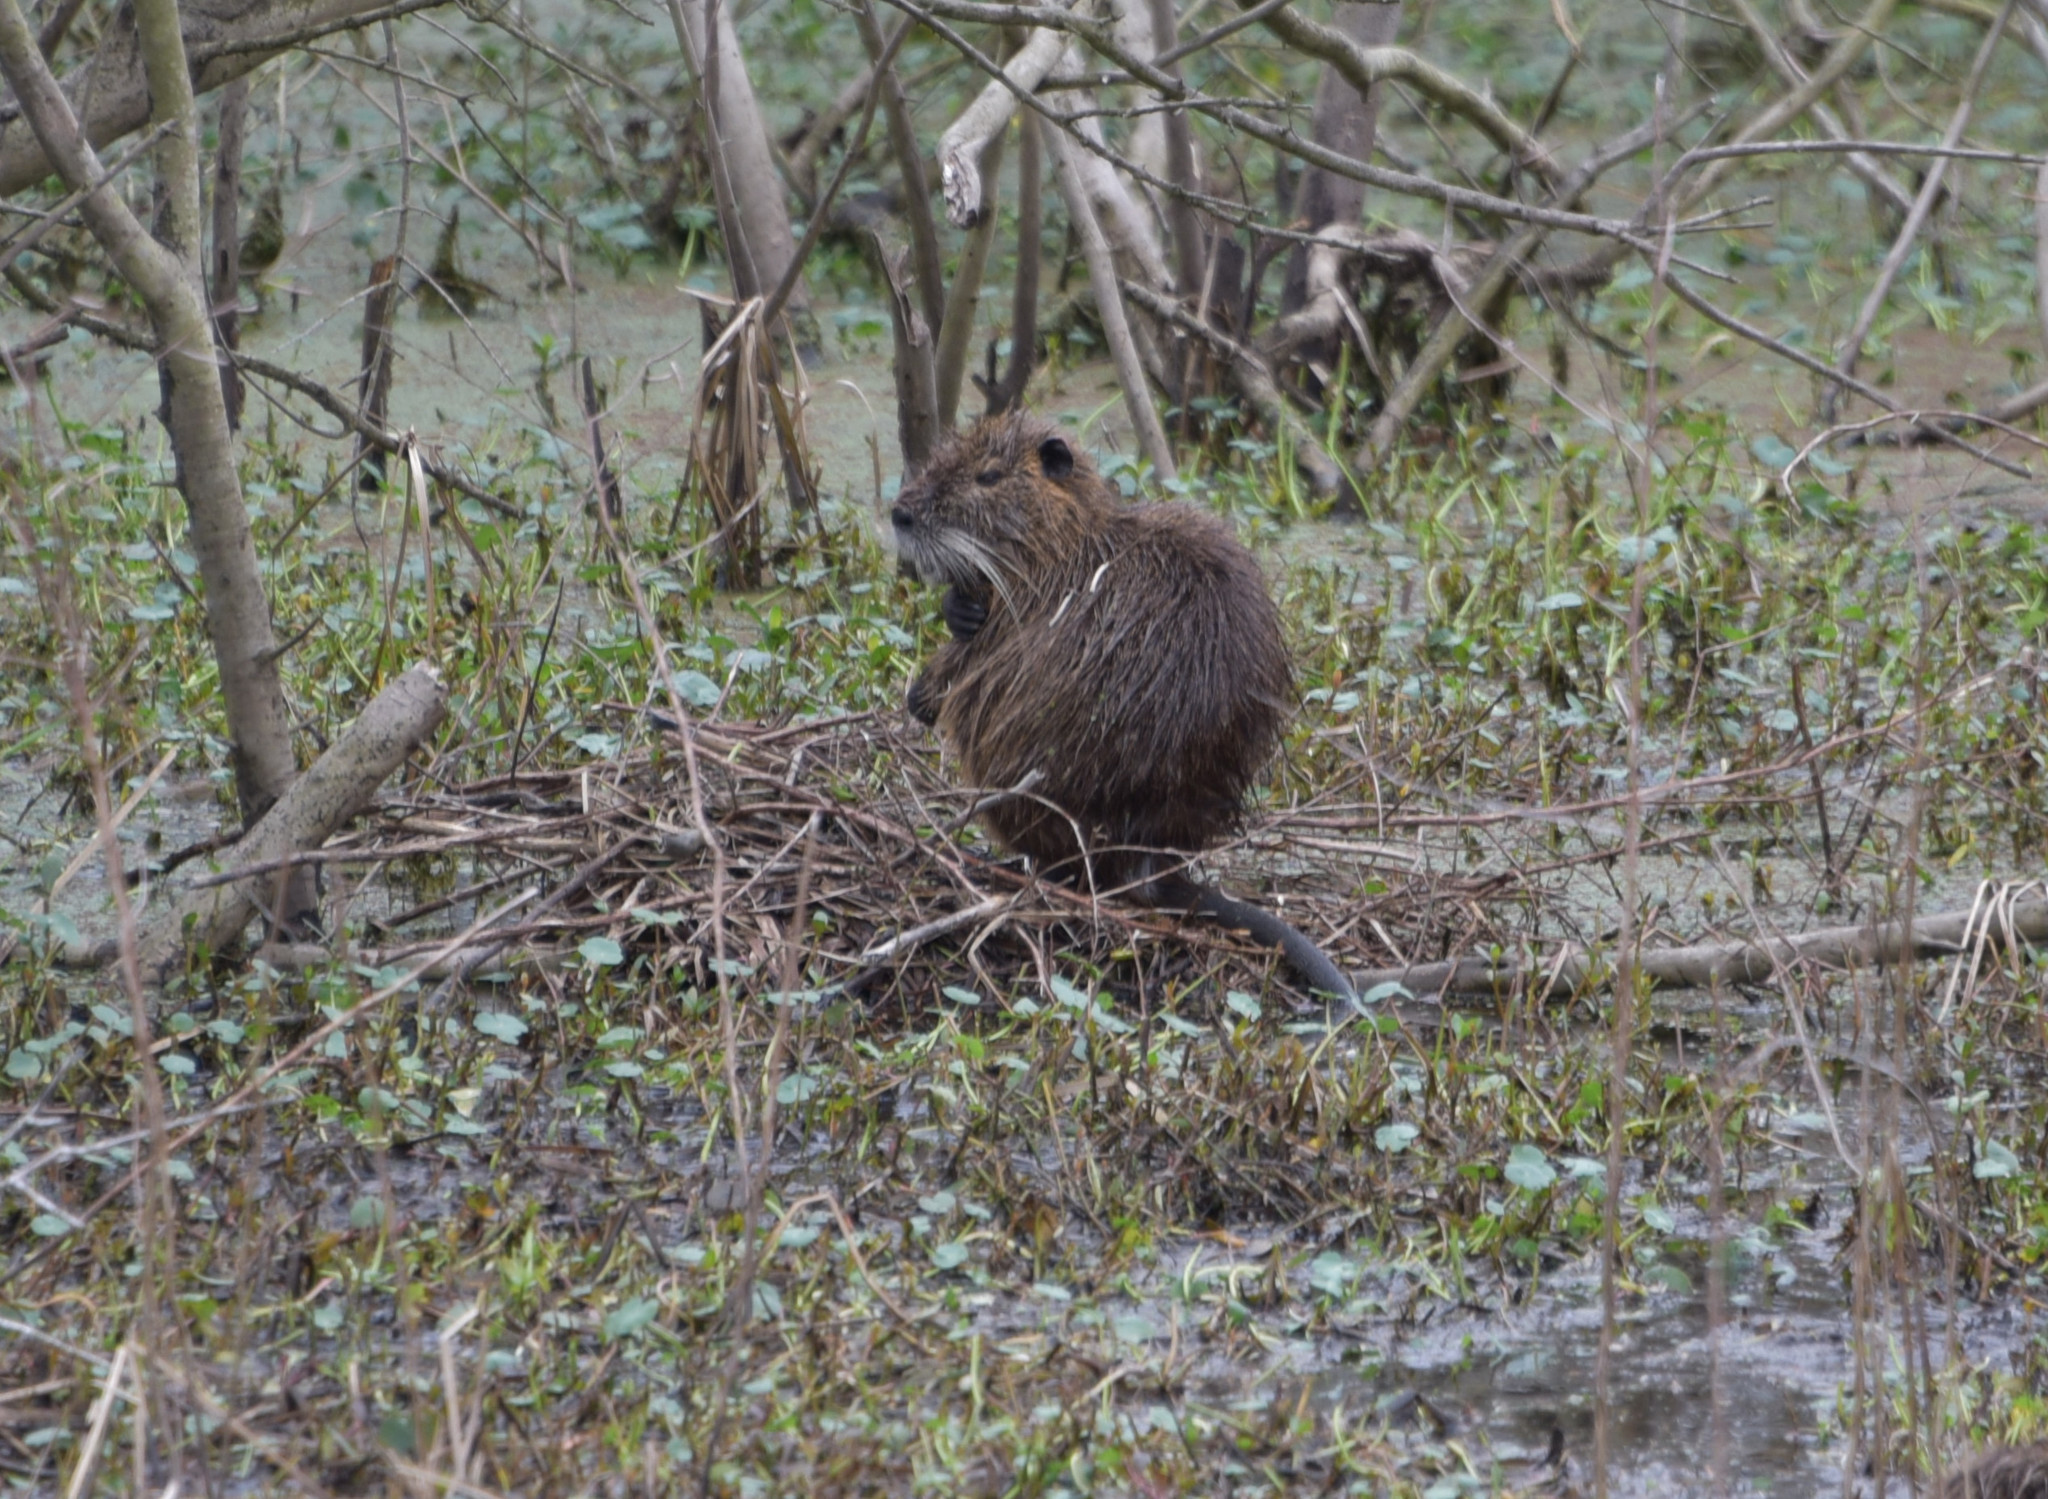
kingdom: Animalia
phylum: Chordata
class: Mammalia
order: Rodentia
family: Myocastoridae
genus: Myocastor
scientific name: Myocastor coypus
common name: Coypu
